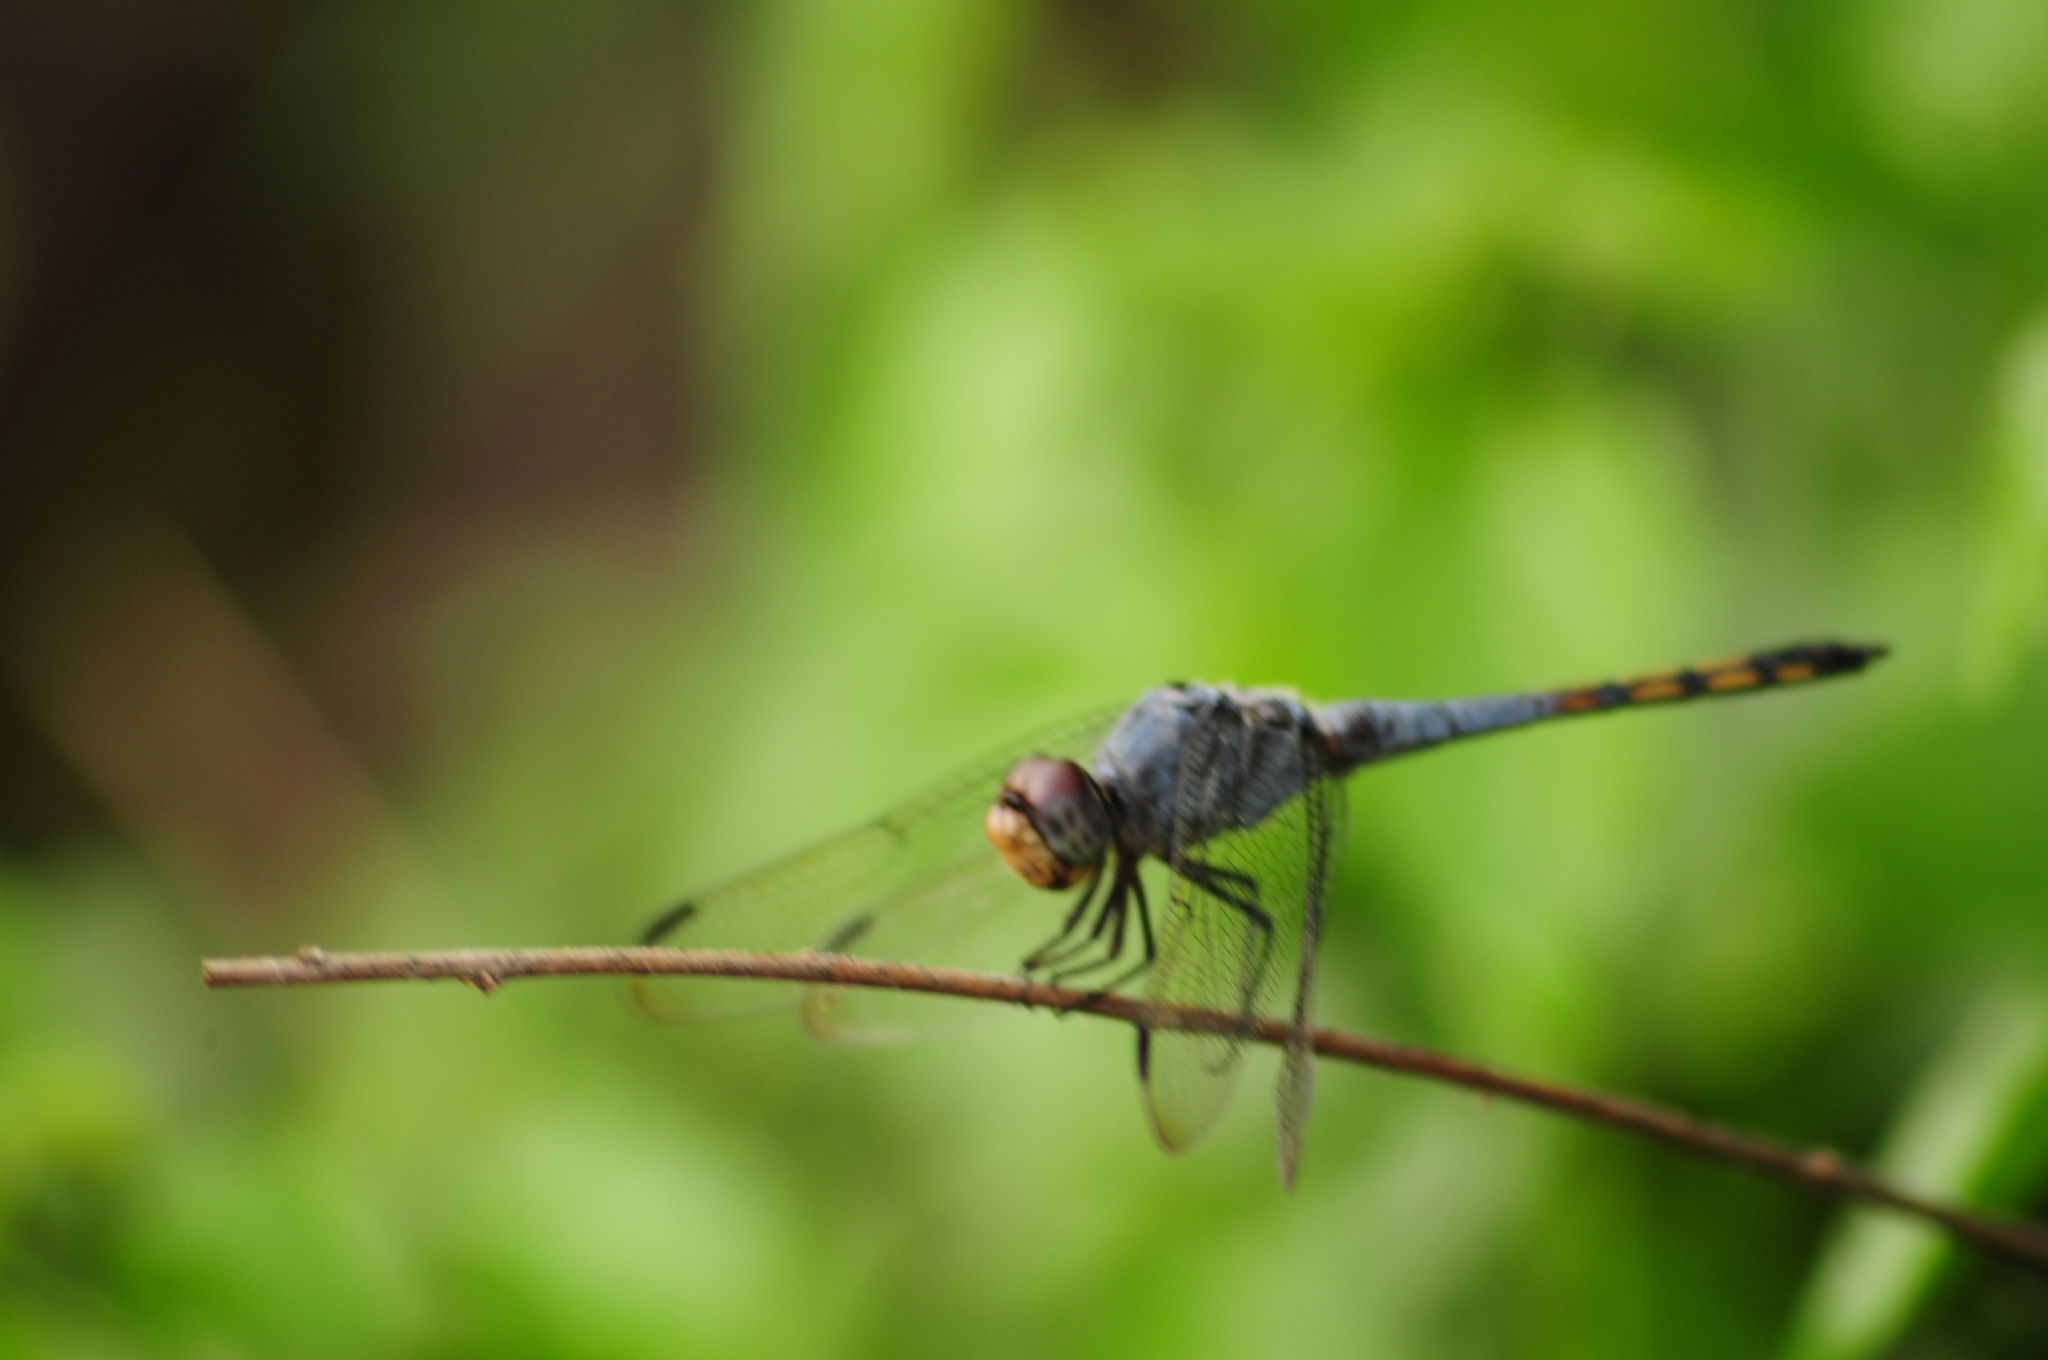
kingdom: Animalia
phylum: Arthropoda
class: Insecta
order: Odonata
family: Libellulidae
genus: Potamarcha
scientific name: Potamarcha congener
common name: Blue chaser
